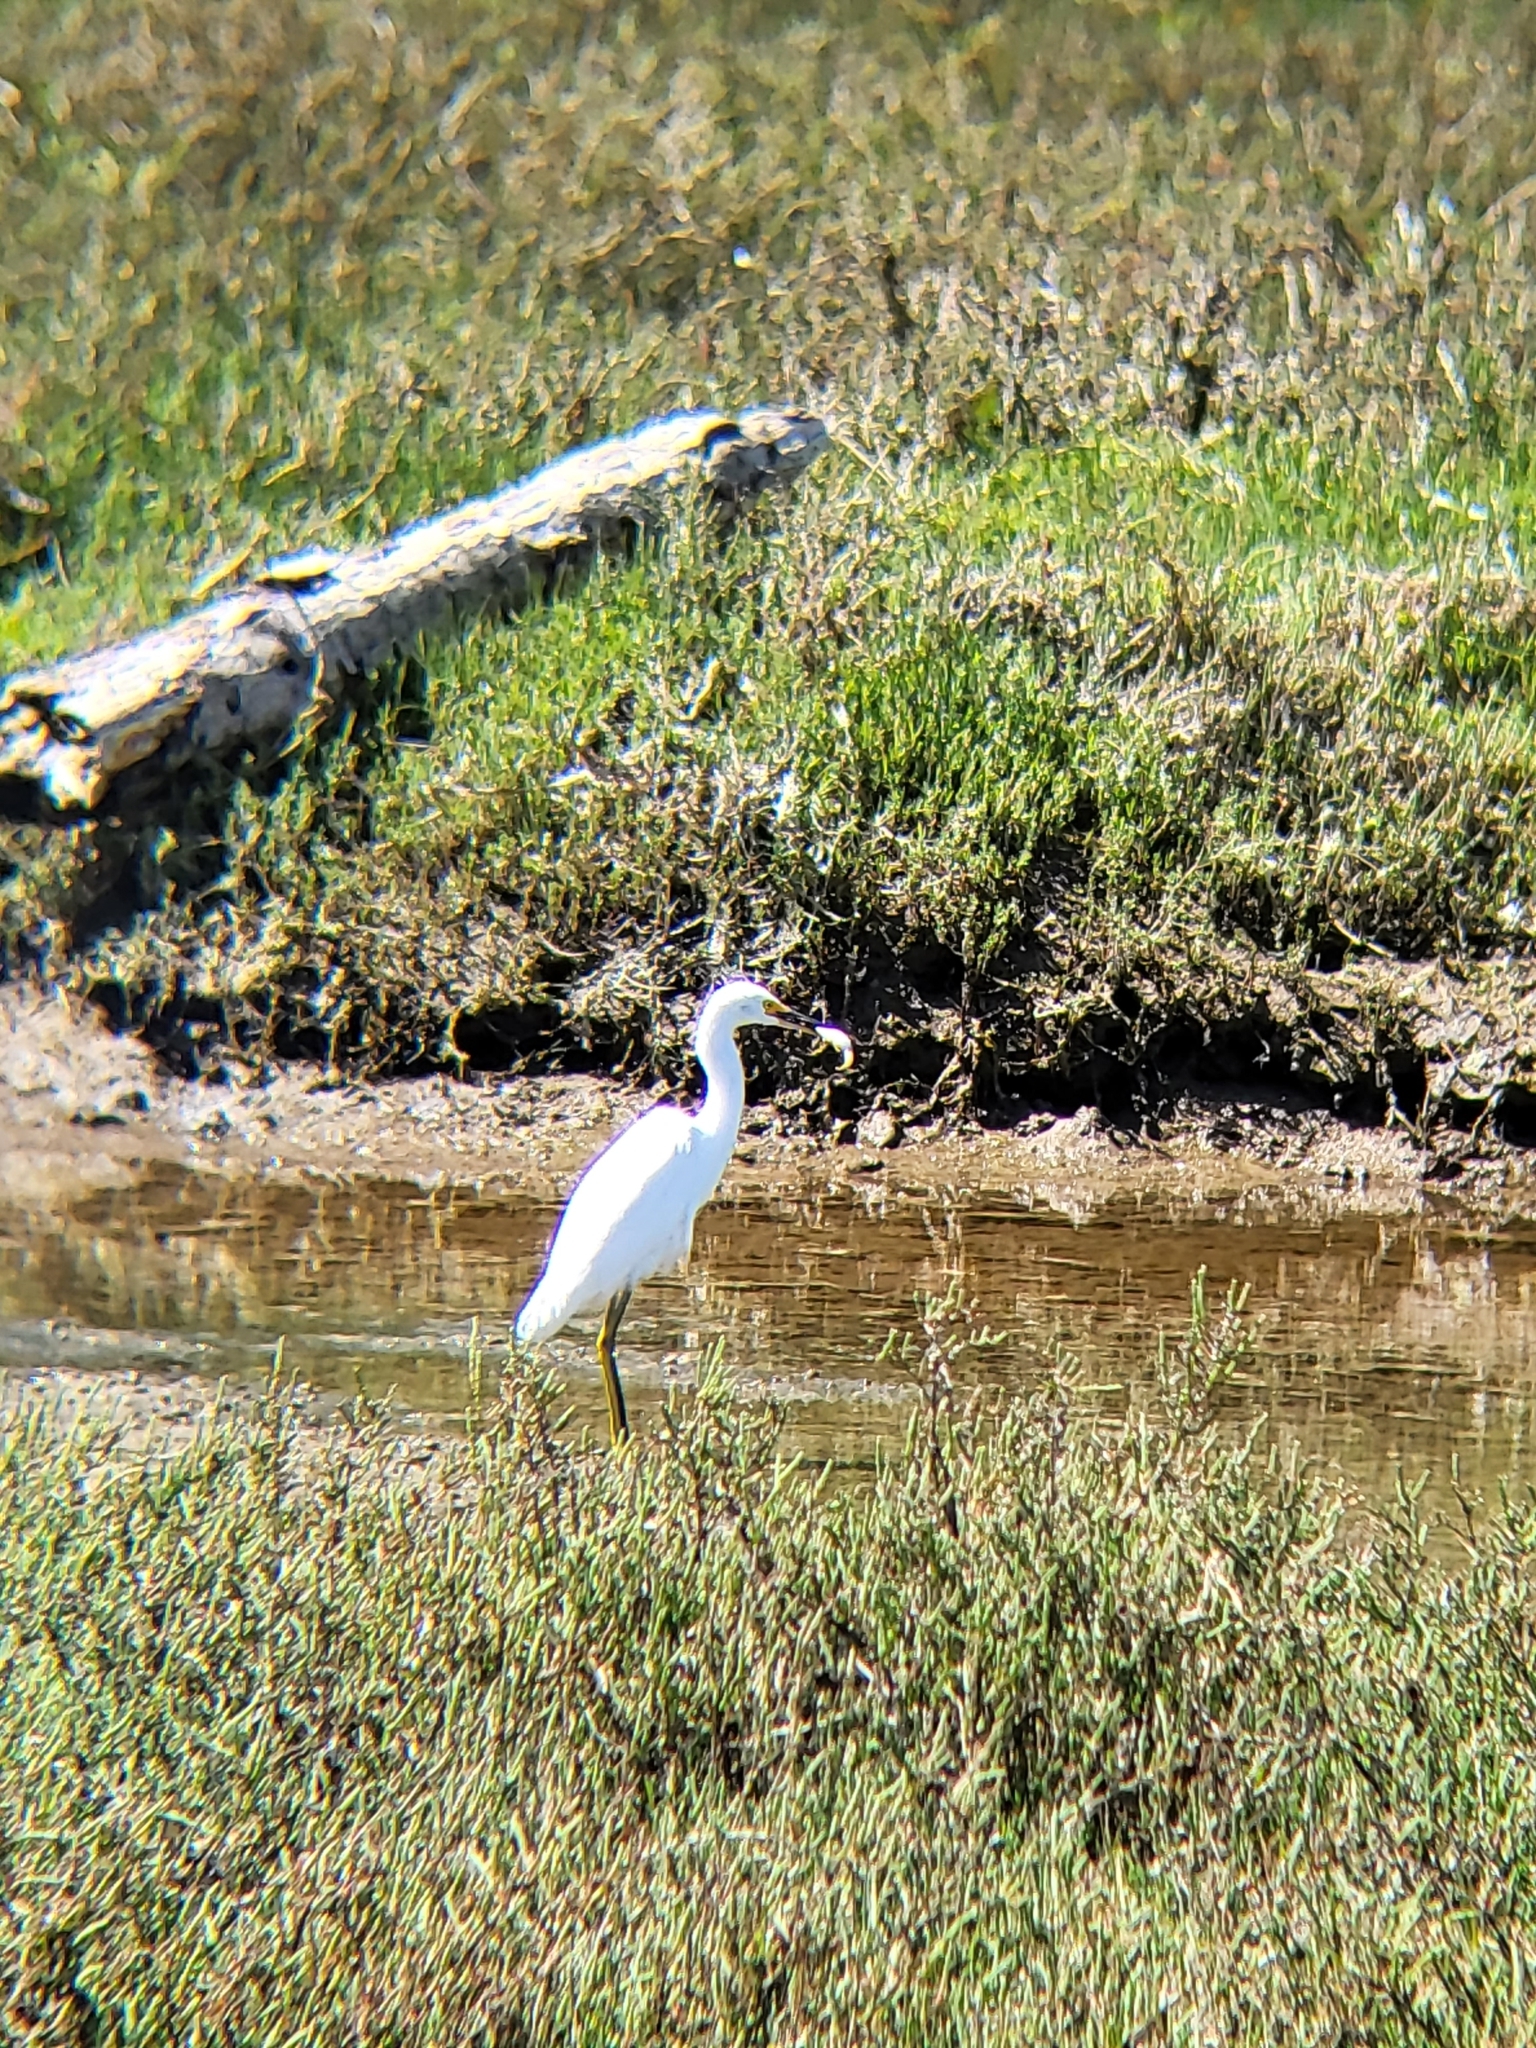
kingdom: Animalia
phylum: Chordata
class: Aves
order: Pelecaniformes
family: Ardeidae
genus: Egretta
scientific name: Egretta thula
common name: Snowy egret
